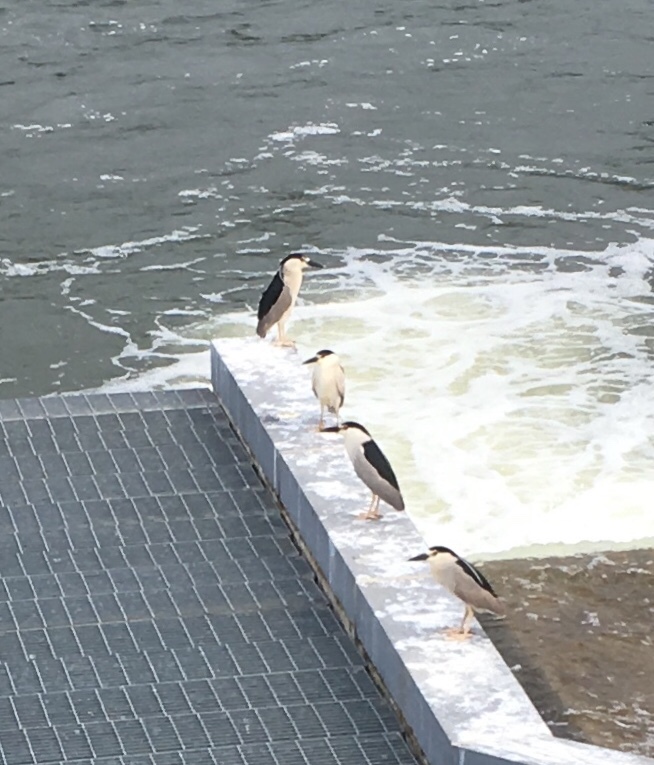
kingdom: Animalia
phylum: Chordata
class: Aves
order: Pelecaniformes
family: Ardeidae
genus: Nycticorax
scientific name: Nycticorax nycticorax
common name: Black-crowned night heron
